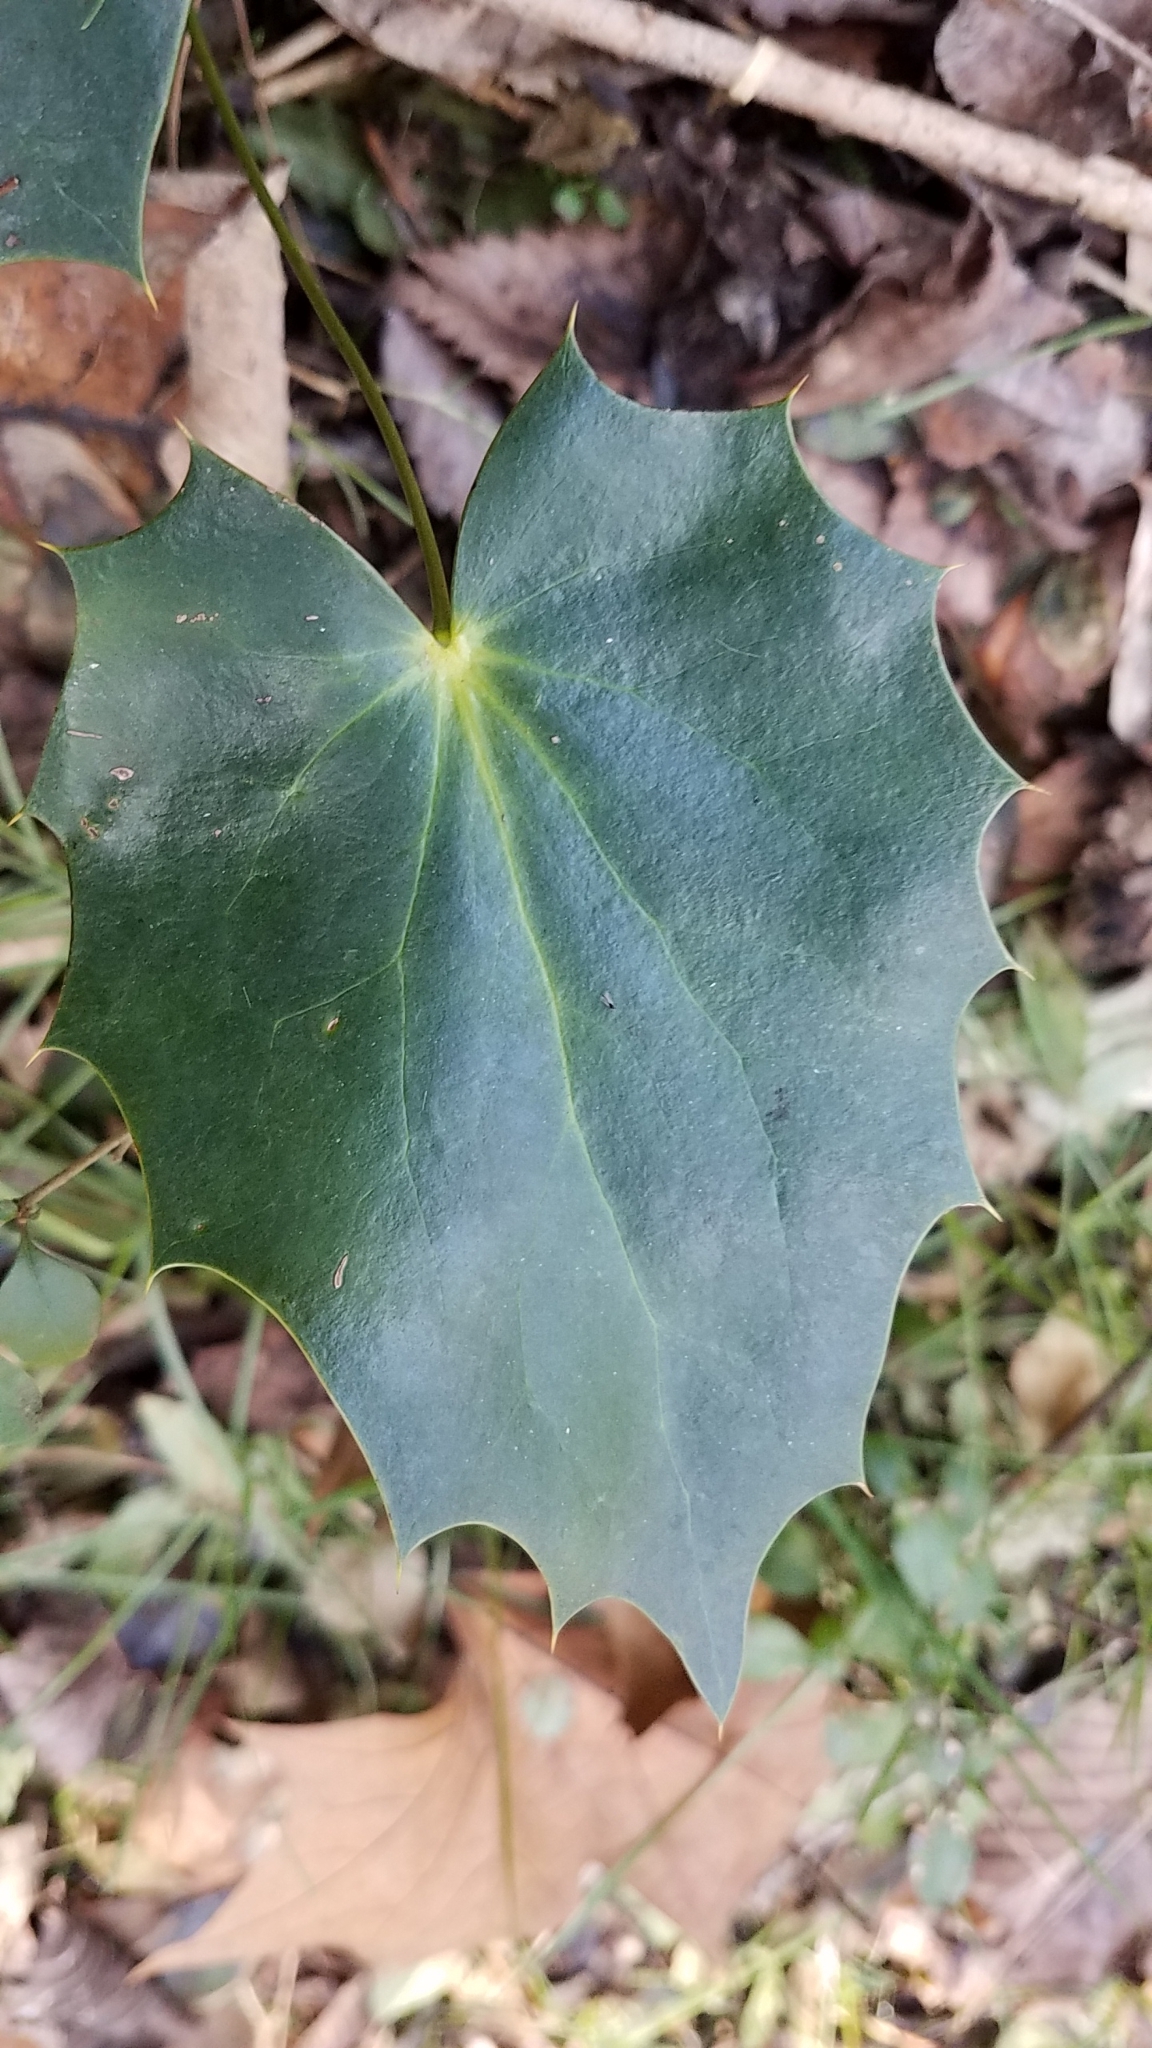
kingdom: Plantae
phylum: Tracheophyta
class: Magnoliopsida
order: Ranunculales
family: Berberidaceae
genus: Mahonia
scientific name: Mahonia bealei
